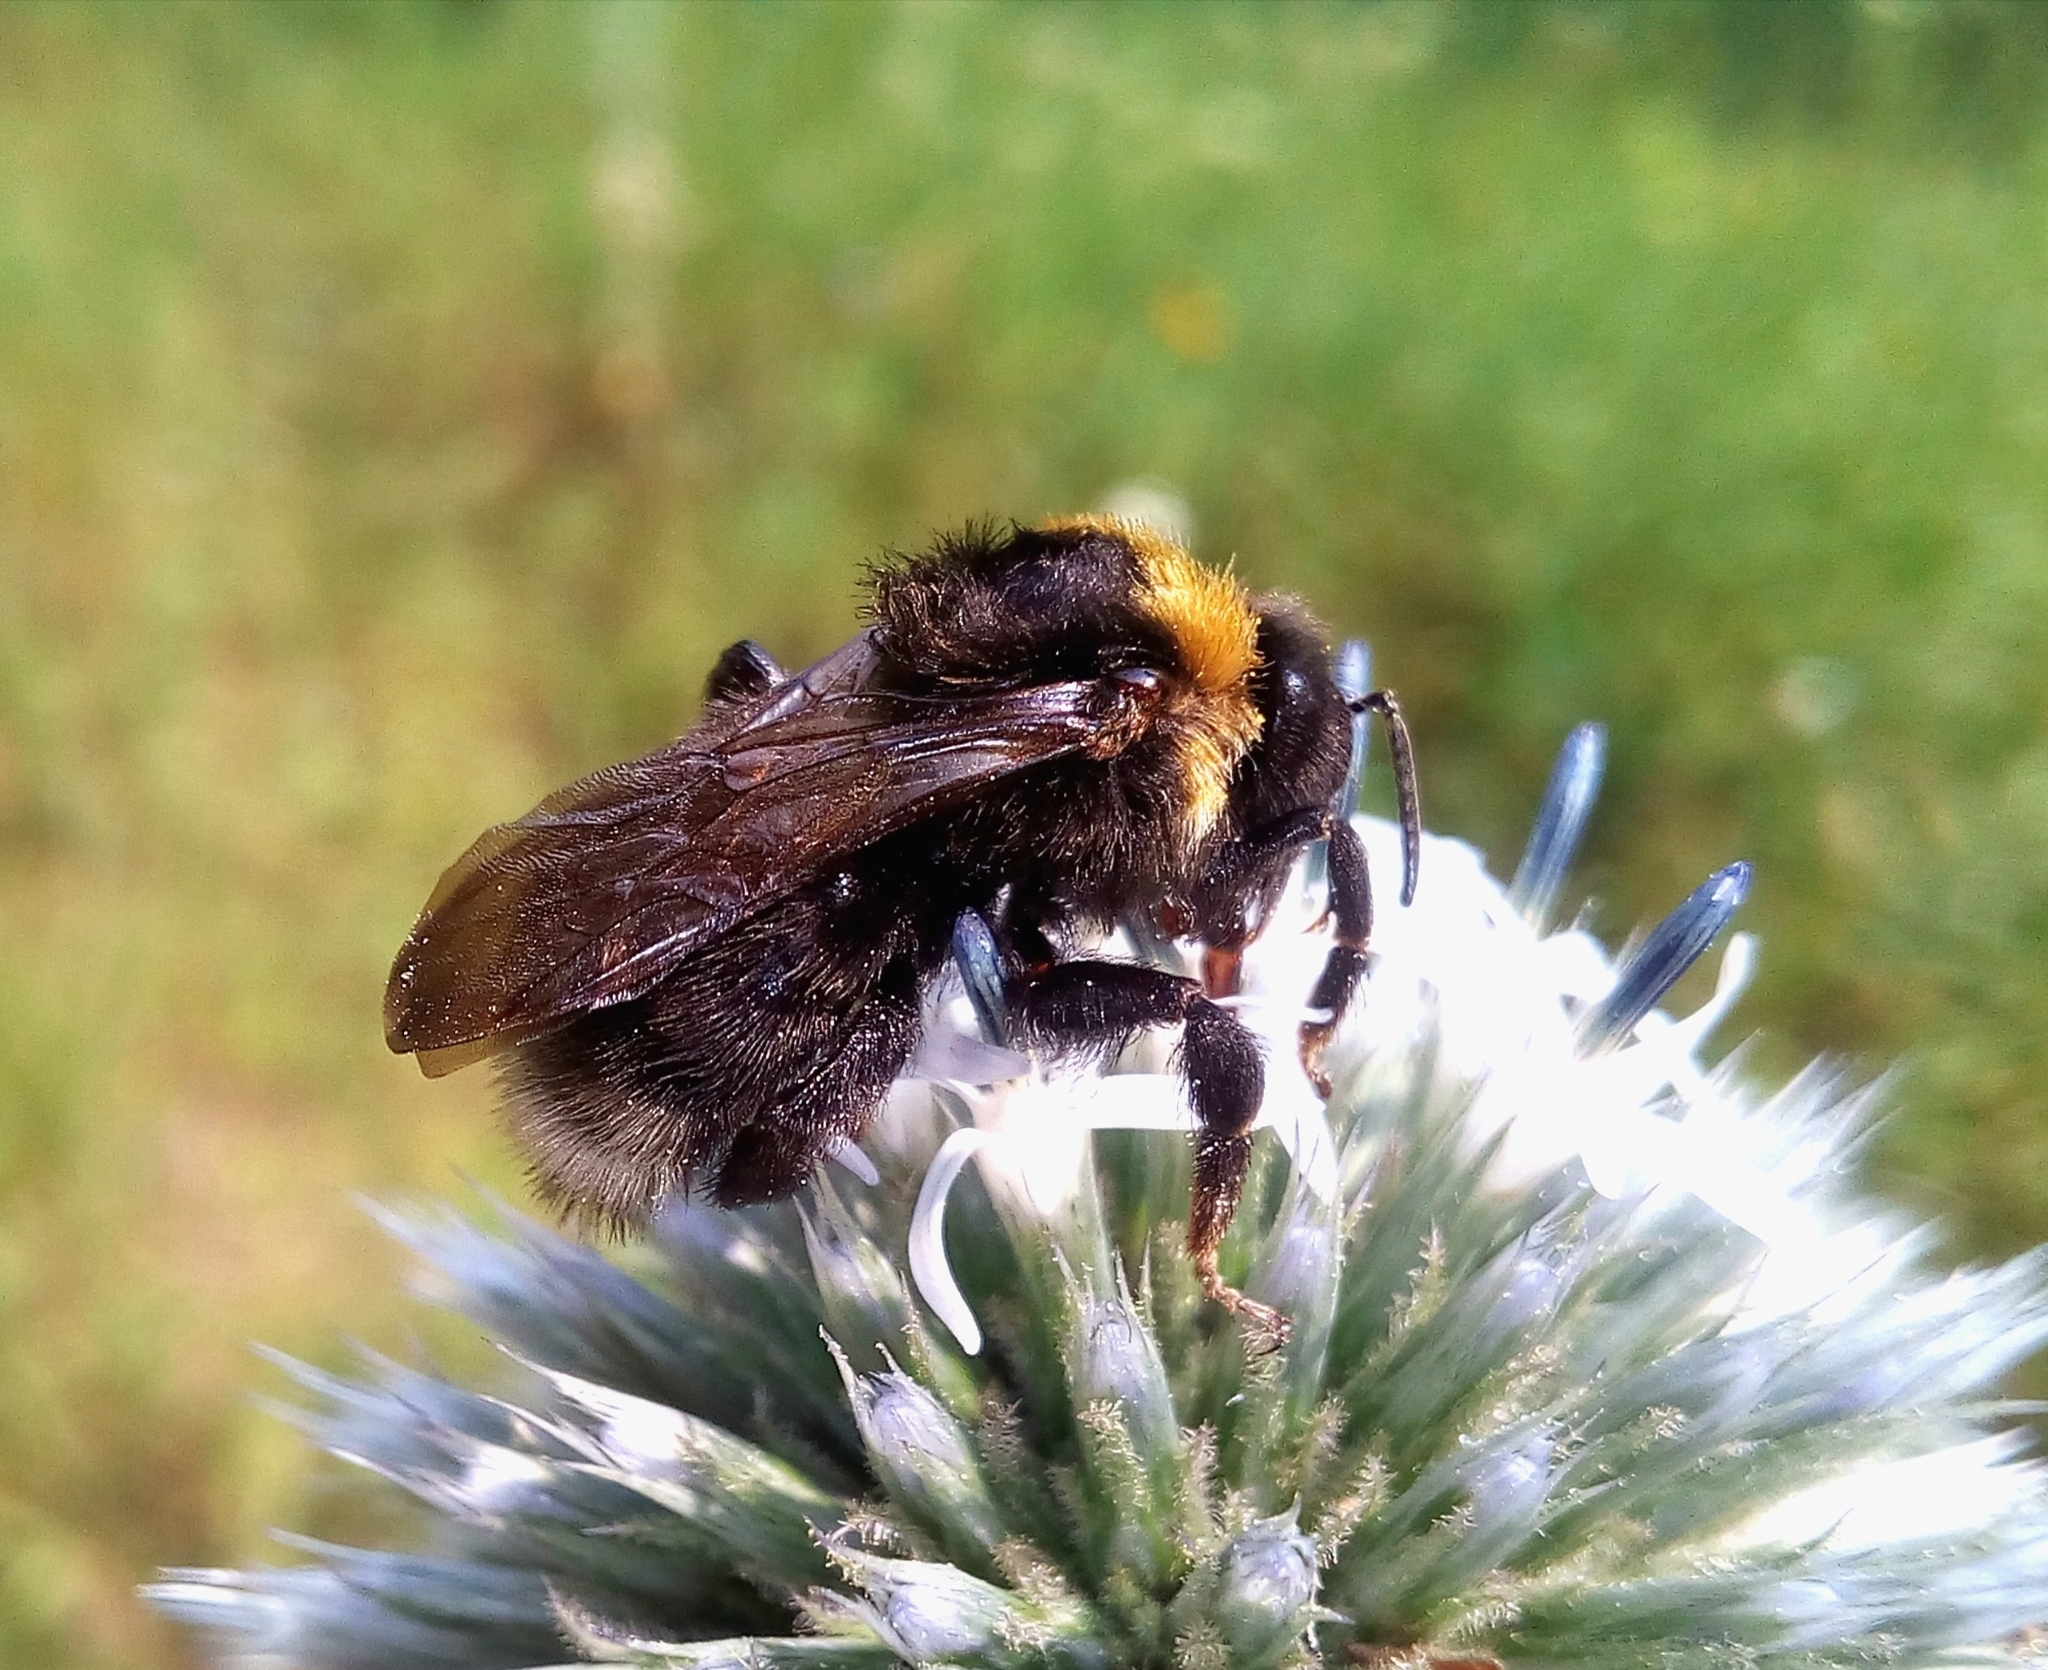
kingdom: Animalia
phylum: Arthropoda
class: Insecta
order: Hymenoptera
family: Apidae
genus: Bombus
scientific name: Bombus
